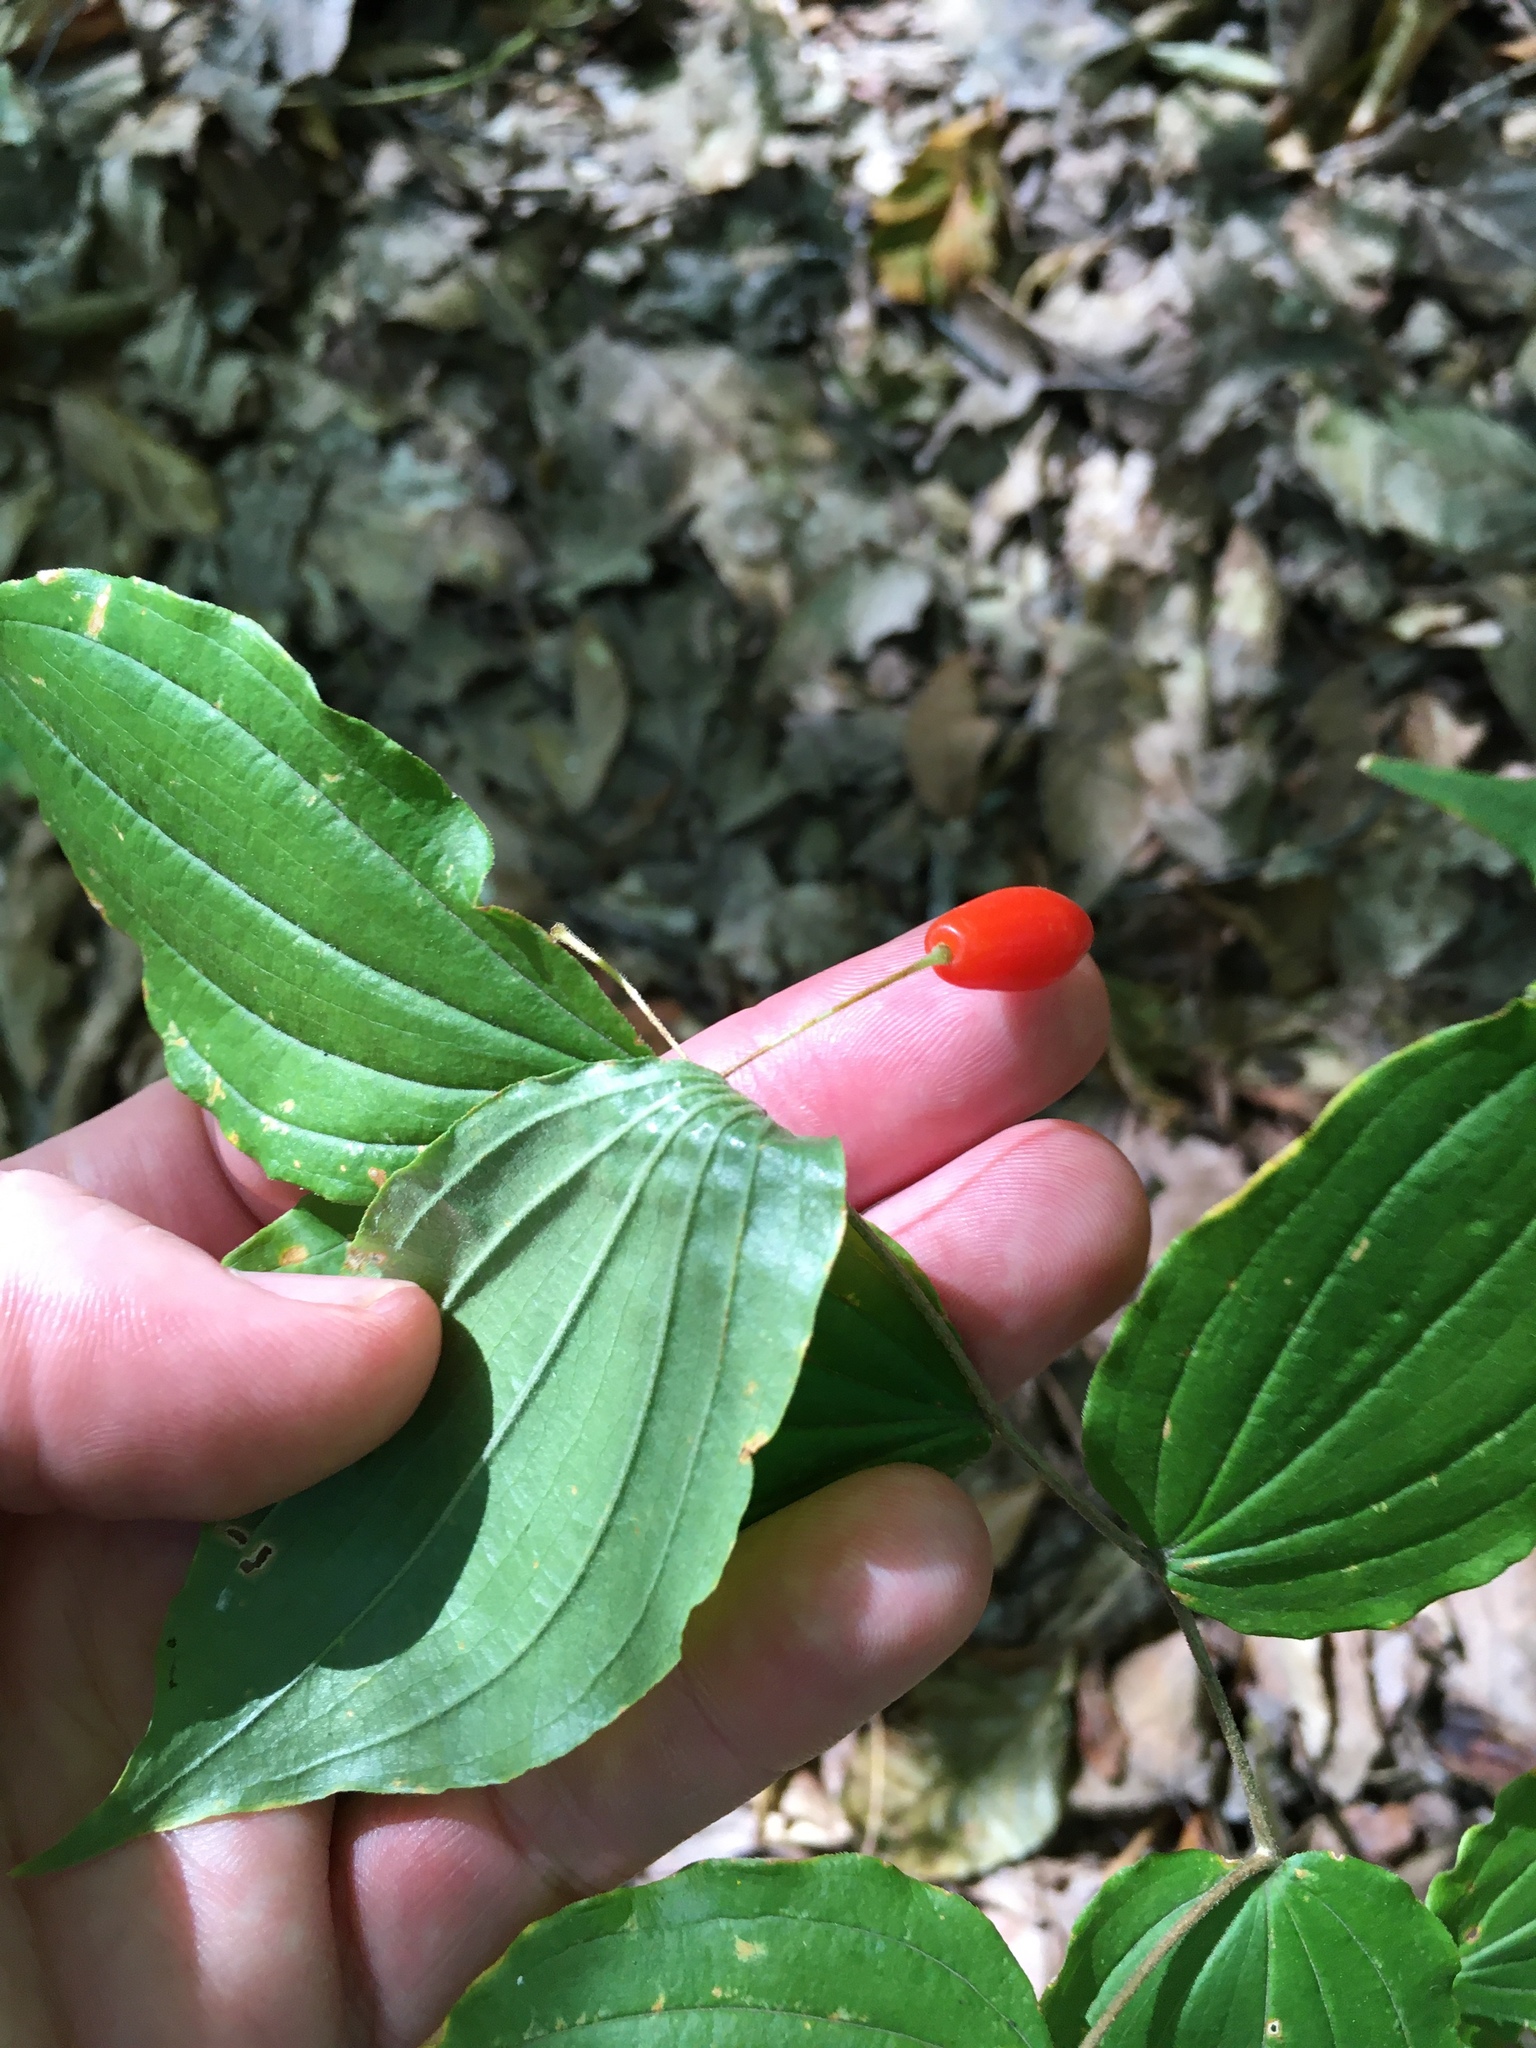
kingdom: Plantae
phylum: Tracheophyta
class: Liliopsida
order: Liliales
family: Liliaceae
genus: Prosartes
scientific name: Prosartes lanuginosa
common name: Hairy mandarin
